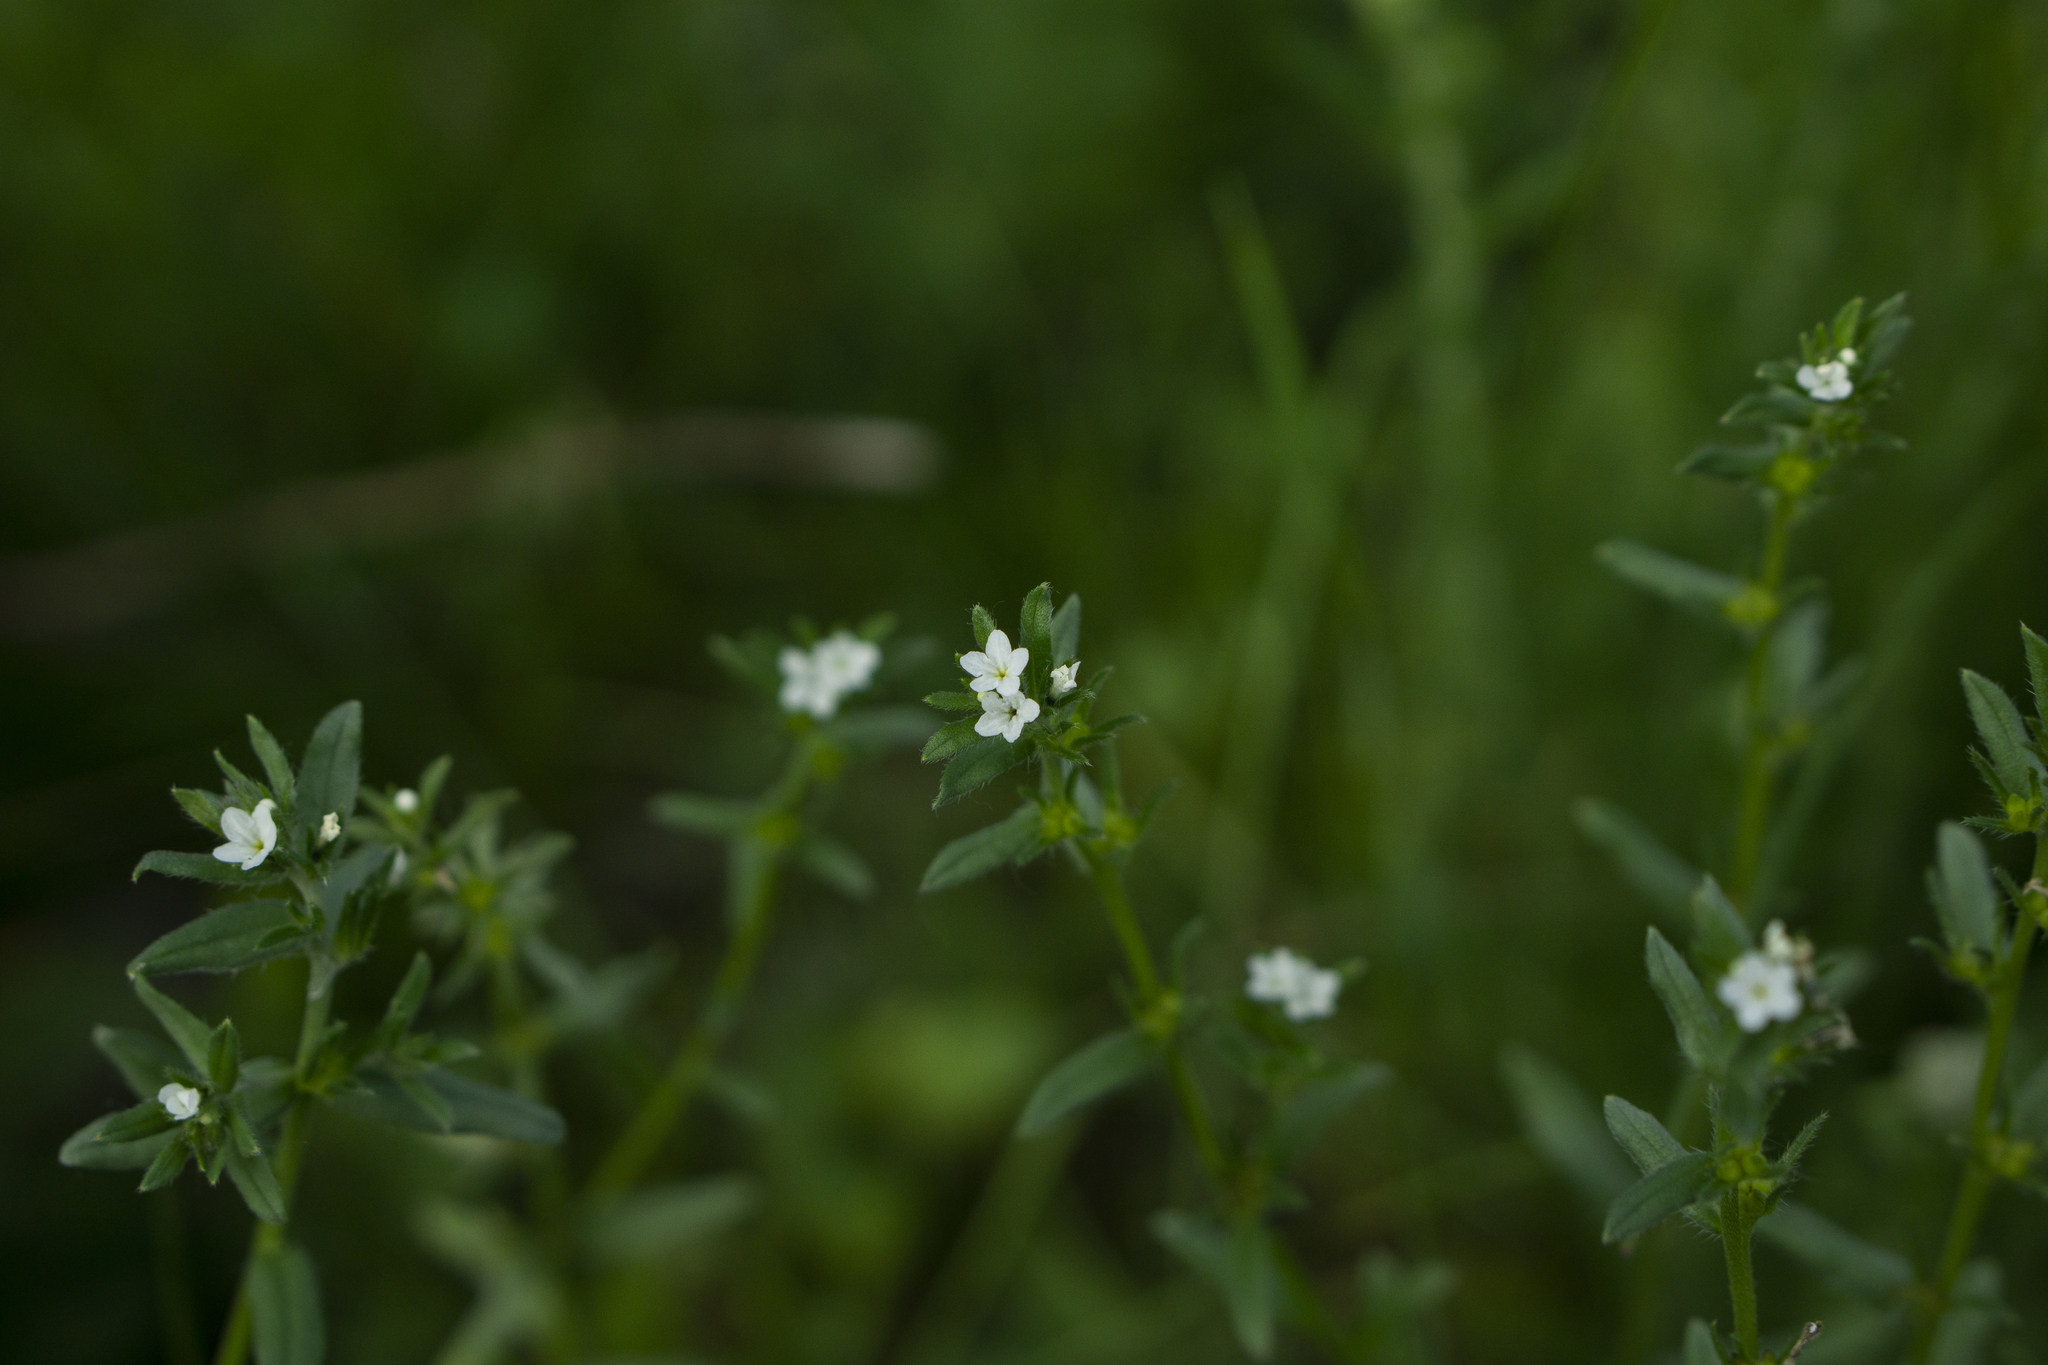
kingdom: Plantae
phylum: Tracheophyta
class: Magnoliopsida
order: Boraginales
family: Boraginaceae
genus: Buglossoides
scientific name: Buglossoides arvensis
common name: Corn gromwell
